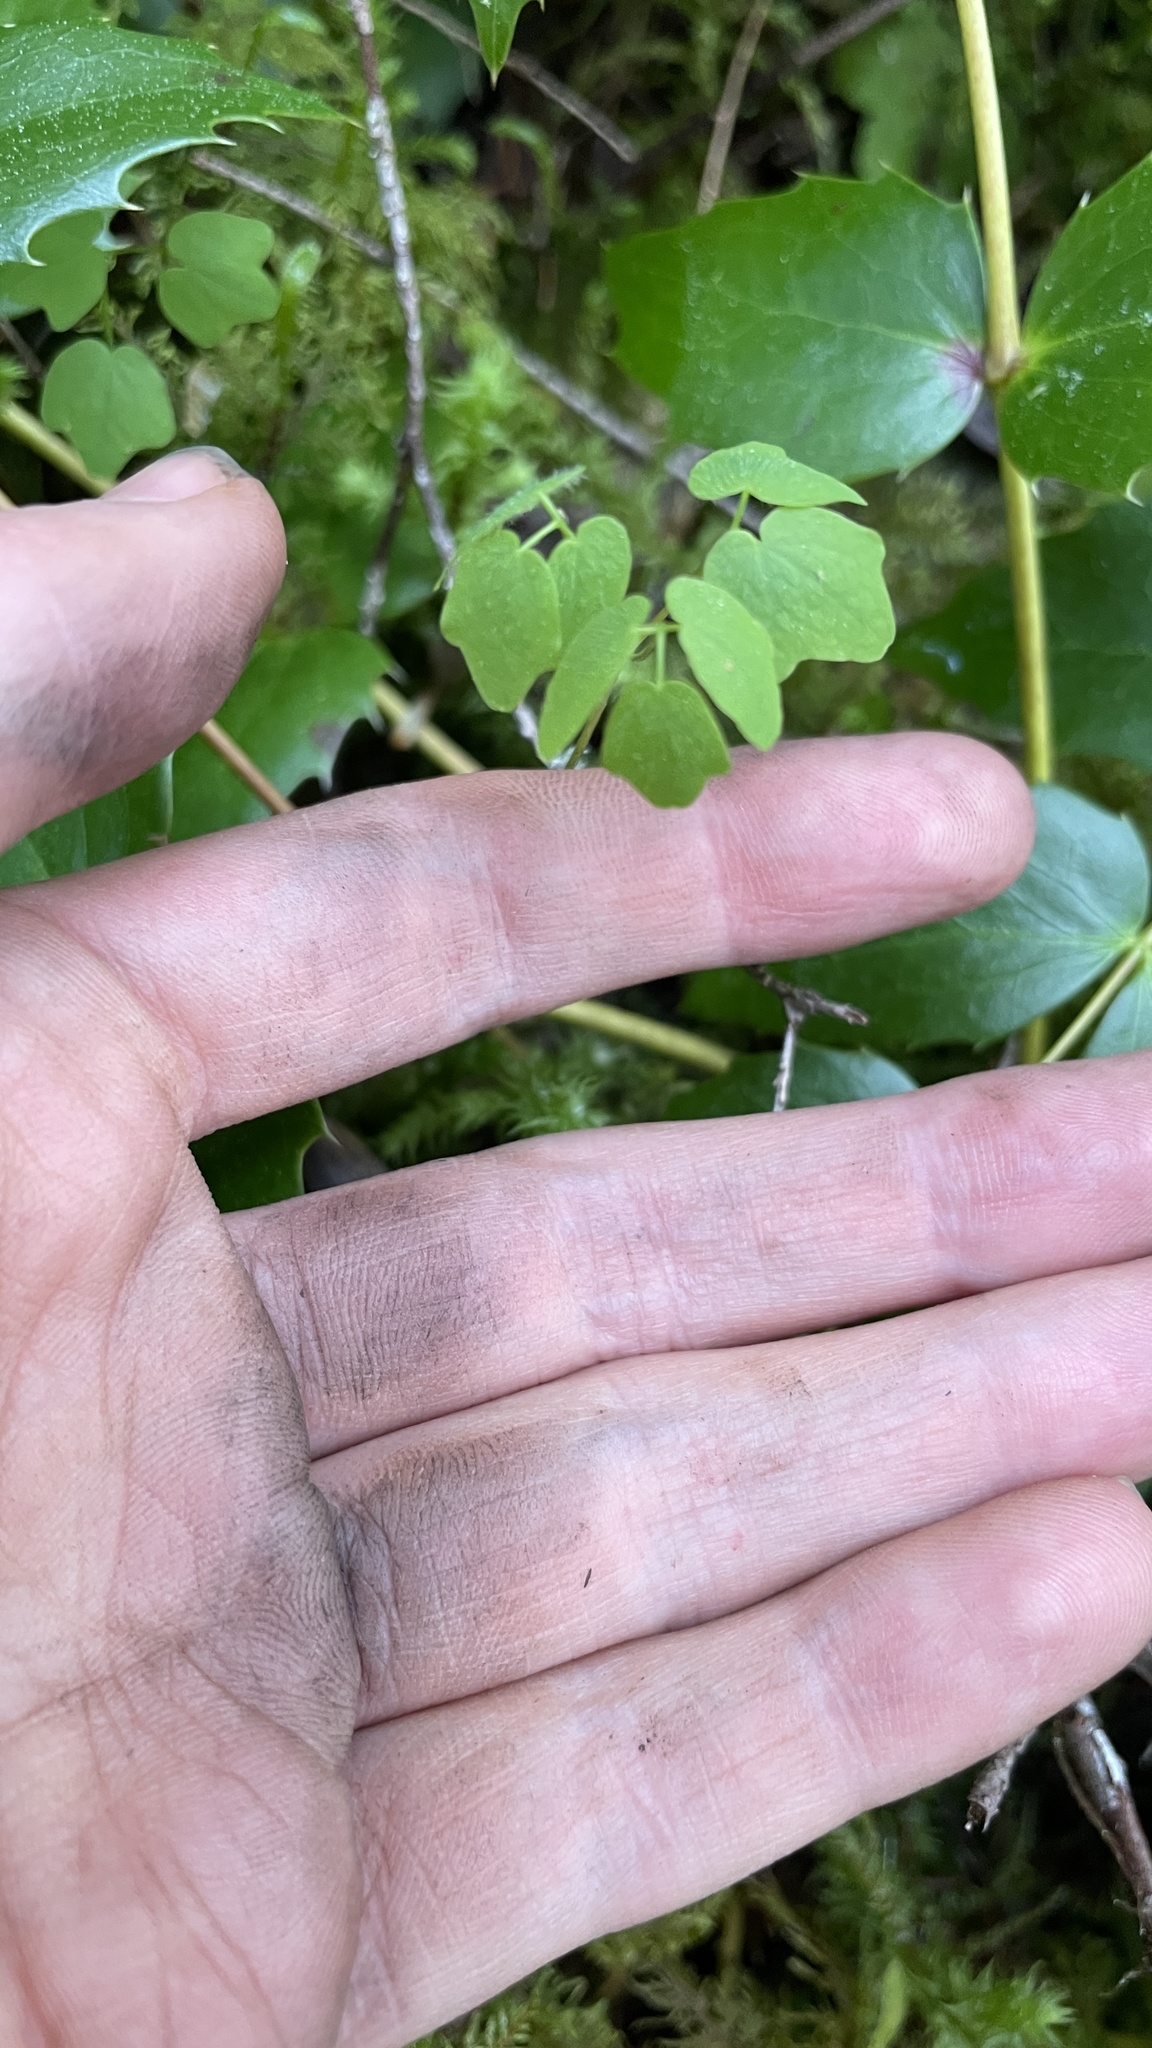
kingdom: Plantae
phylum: Tracheophyta
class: Magnoliopsida
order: Ranunculales
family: Berberidaceae
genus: Vancouveria
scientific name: Vancouveria hexandra
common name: Northern inside-out-flower
